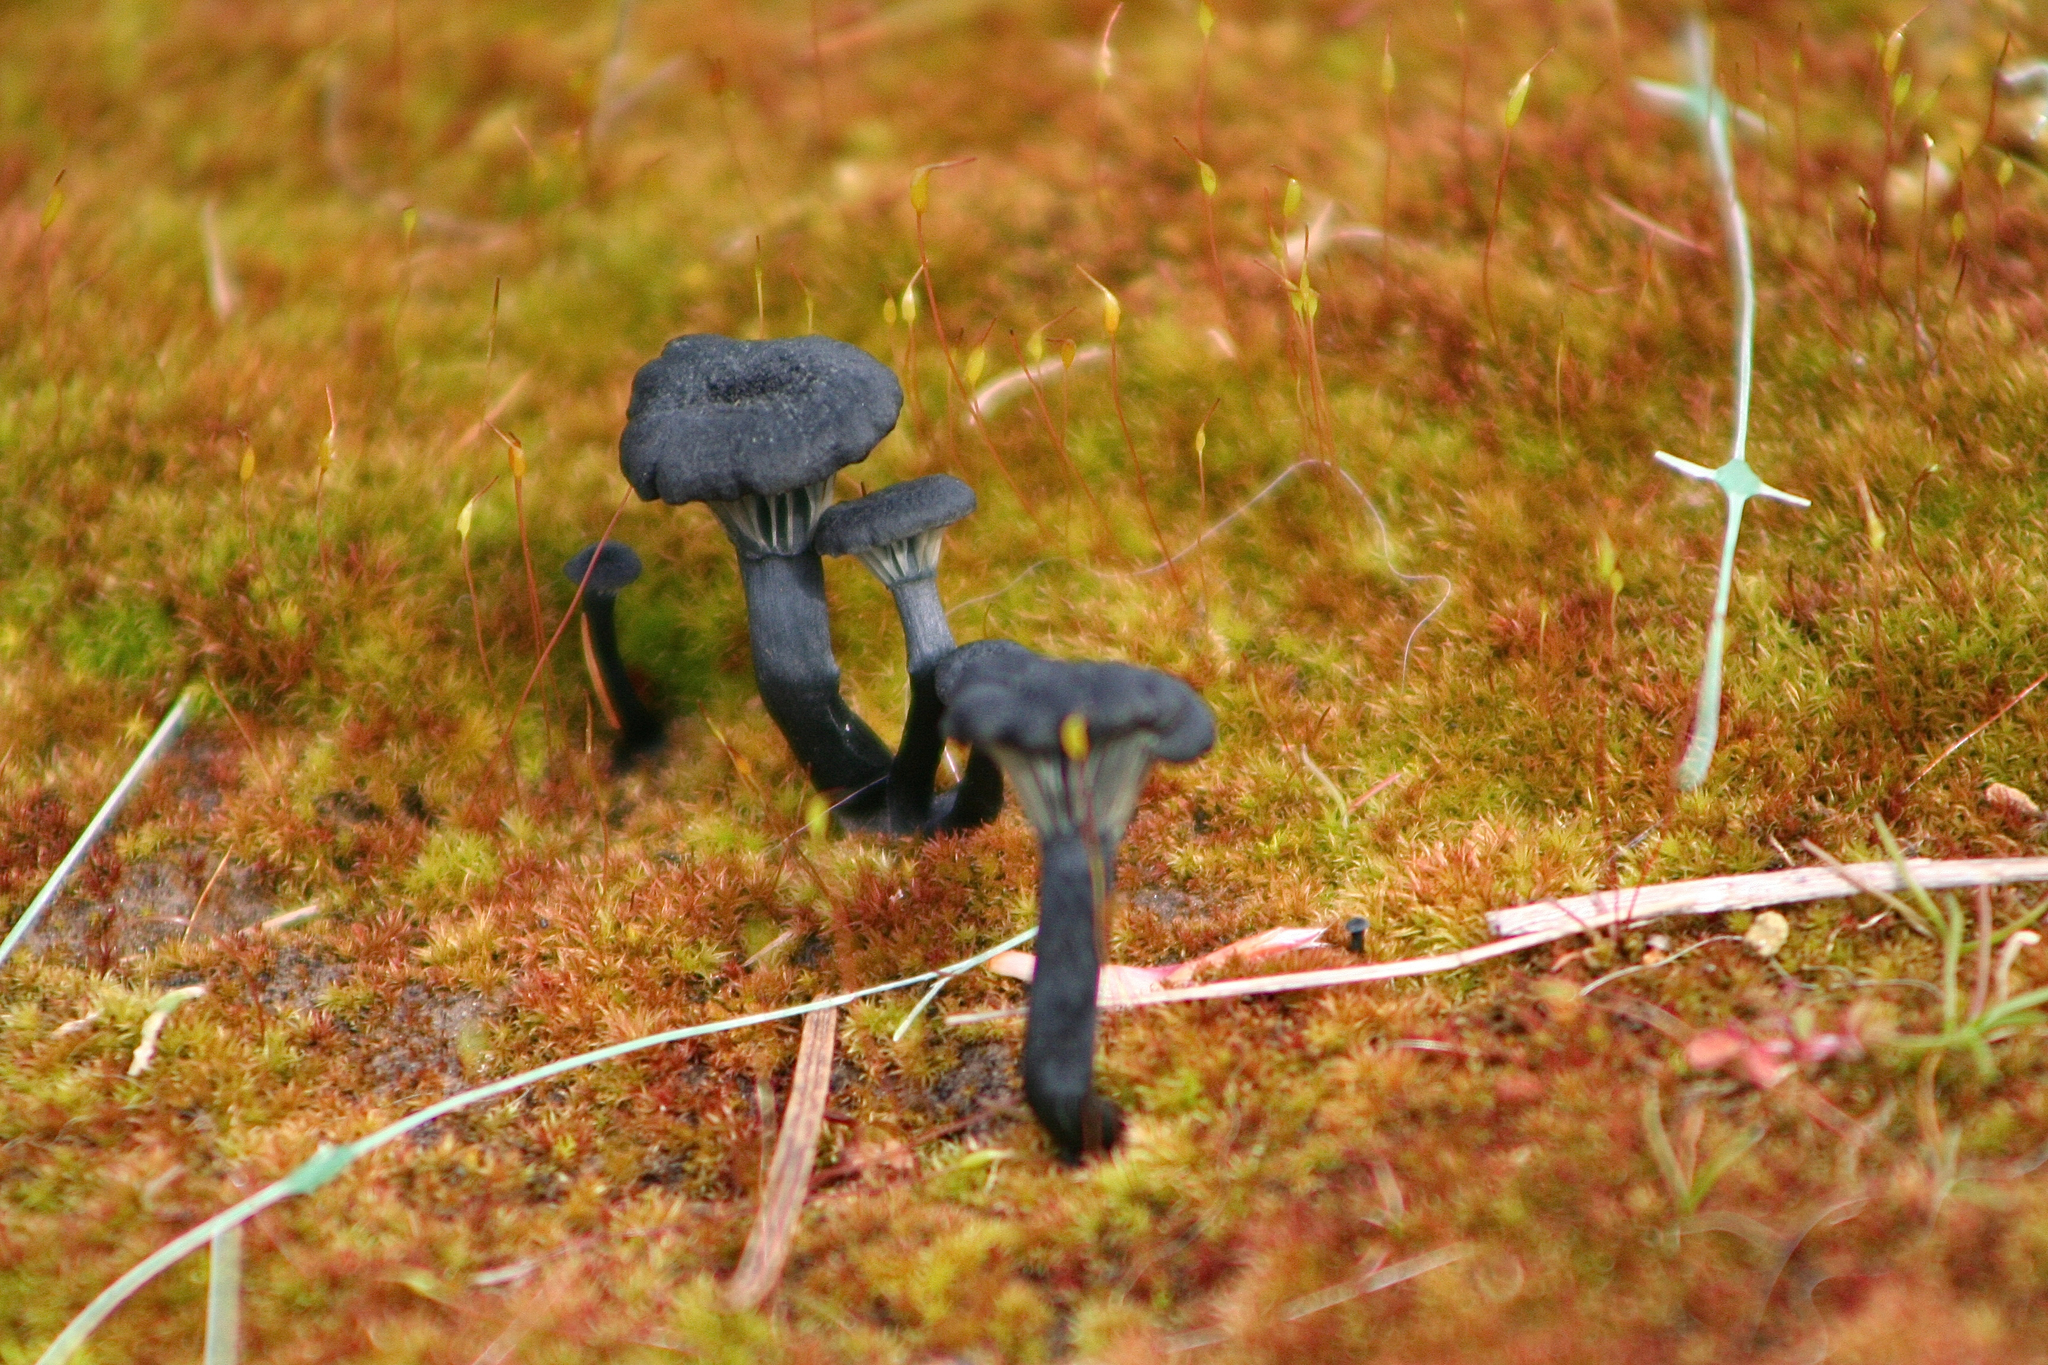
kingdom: Fungi
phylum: Basidiomycota
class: Agaricomycetes
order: Agaricales
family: Hygrophoraceae
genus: Arrhenia
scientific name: Arrhenia chlorocyanea
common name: Verdigris navel
